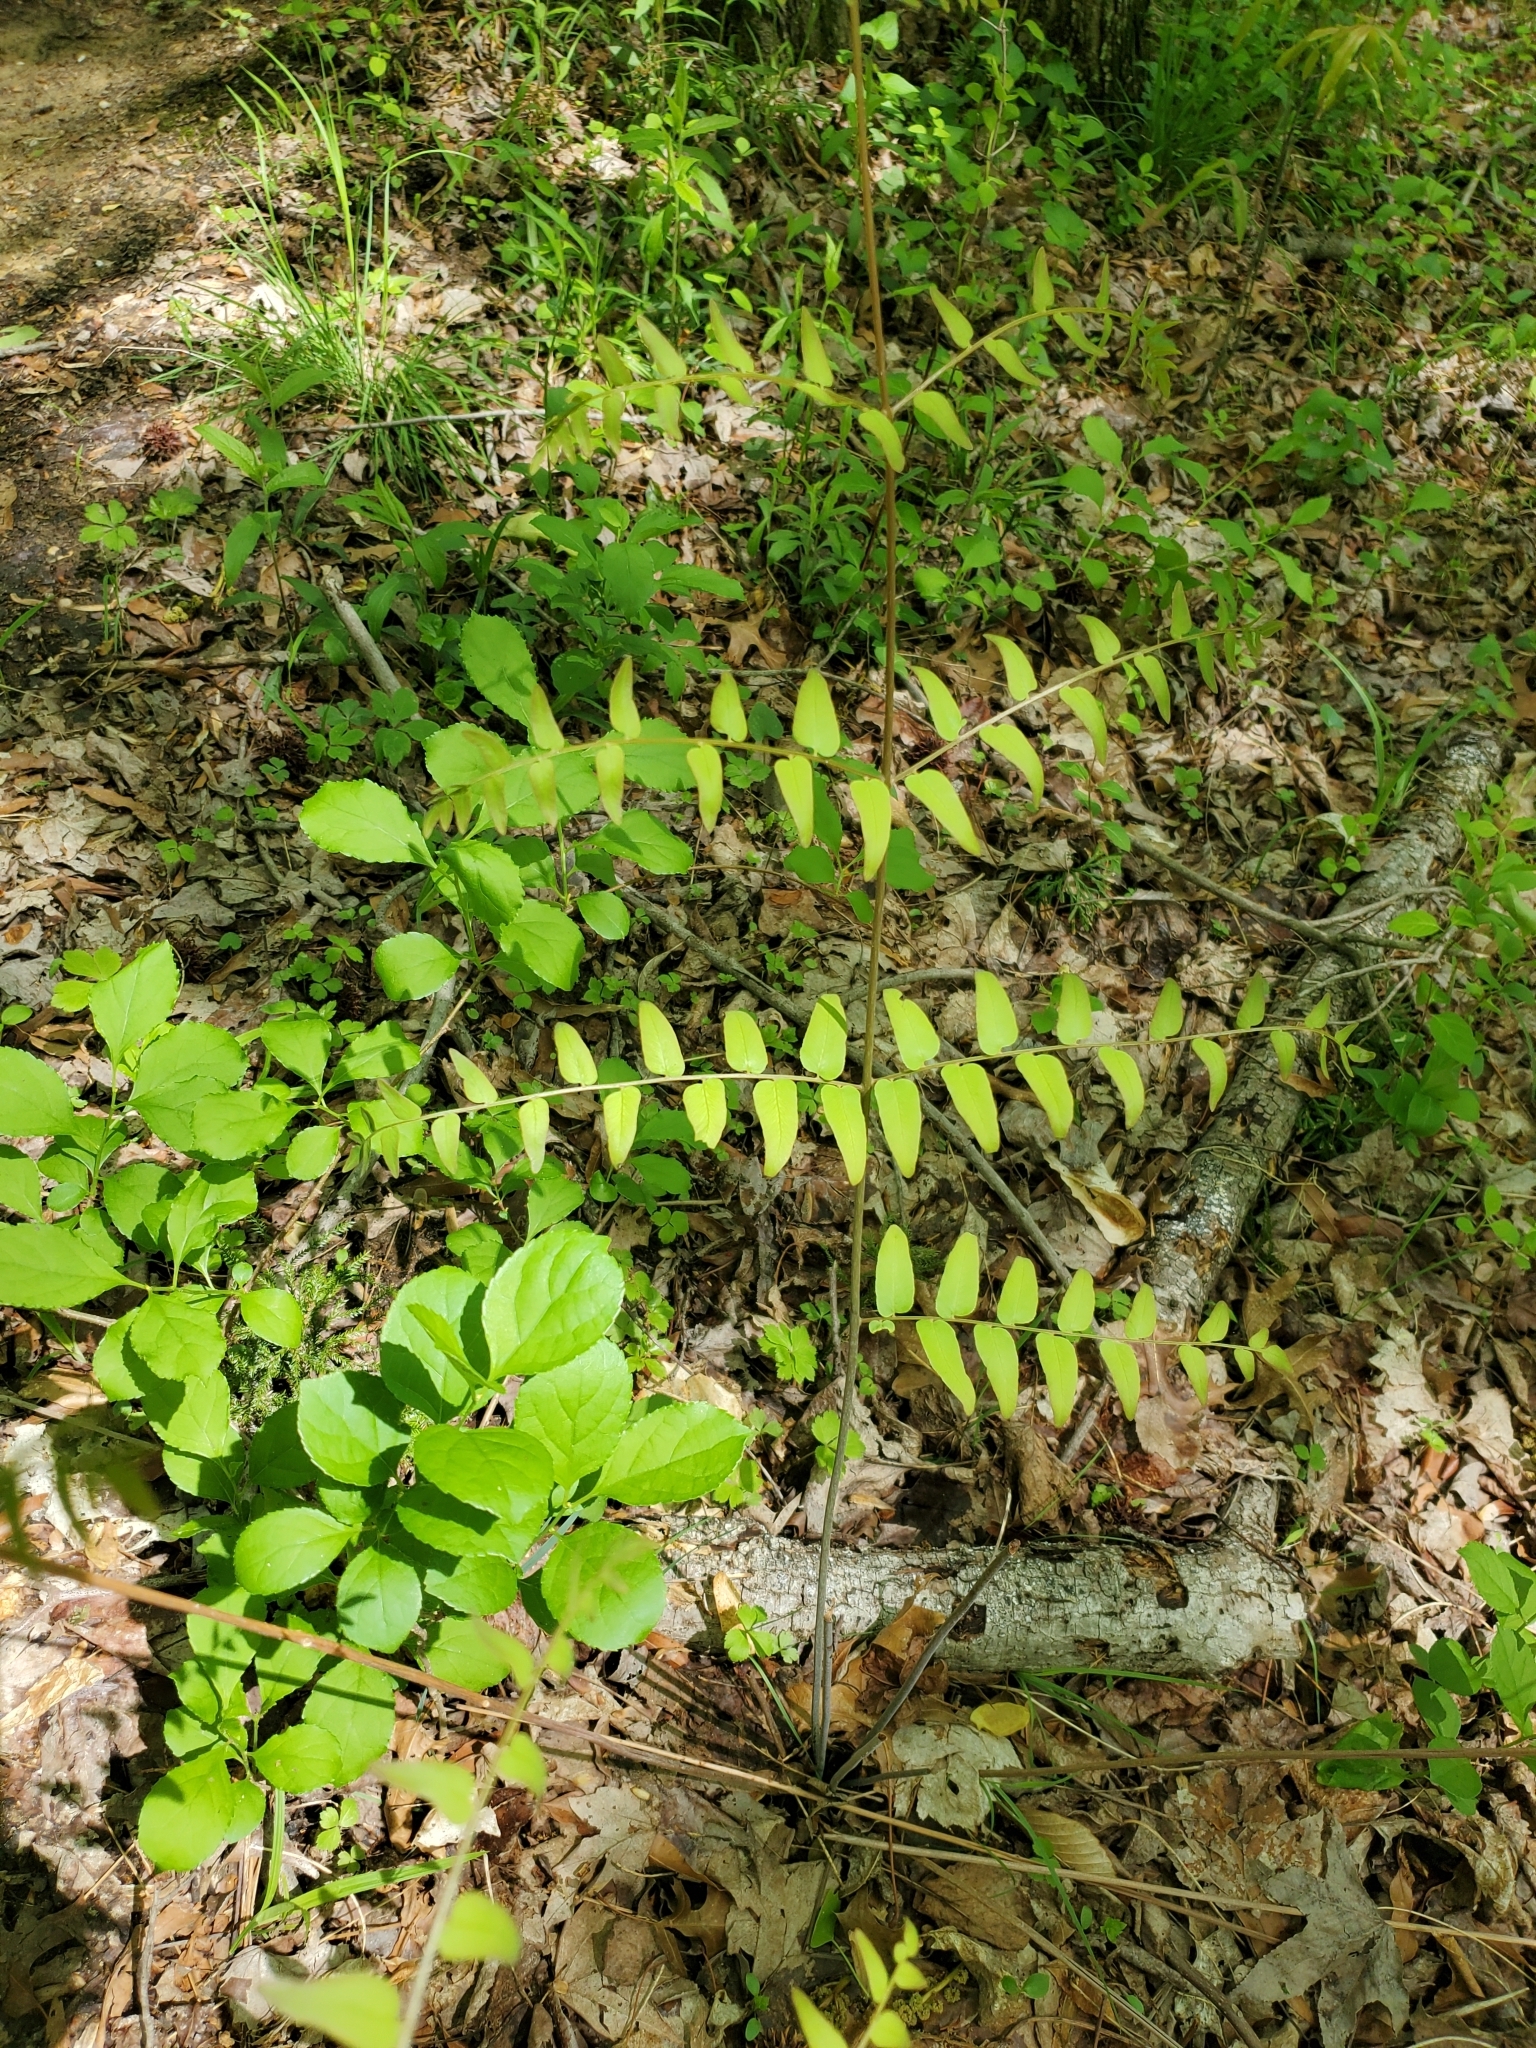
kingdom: Plantae
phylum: Tracheophyta
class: Polypodiopsida
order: Osmundales
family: Osmundaceae
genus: Osmunda
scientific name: Osmunda spectabilis
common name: American royal fern
